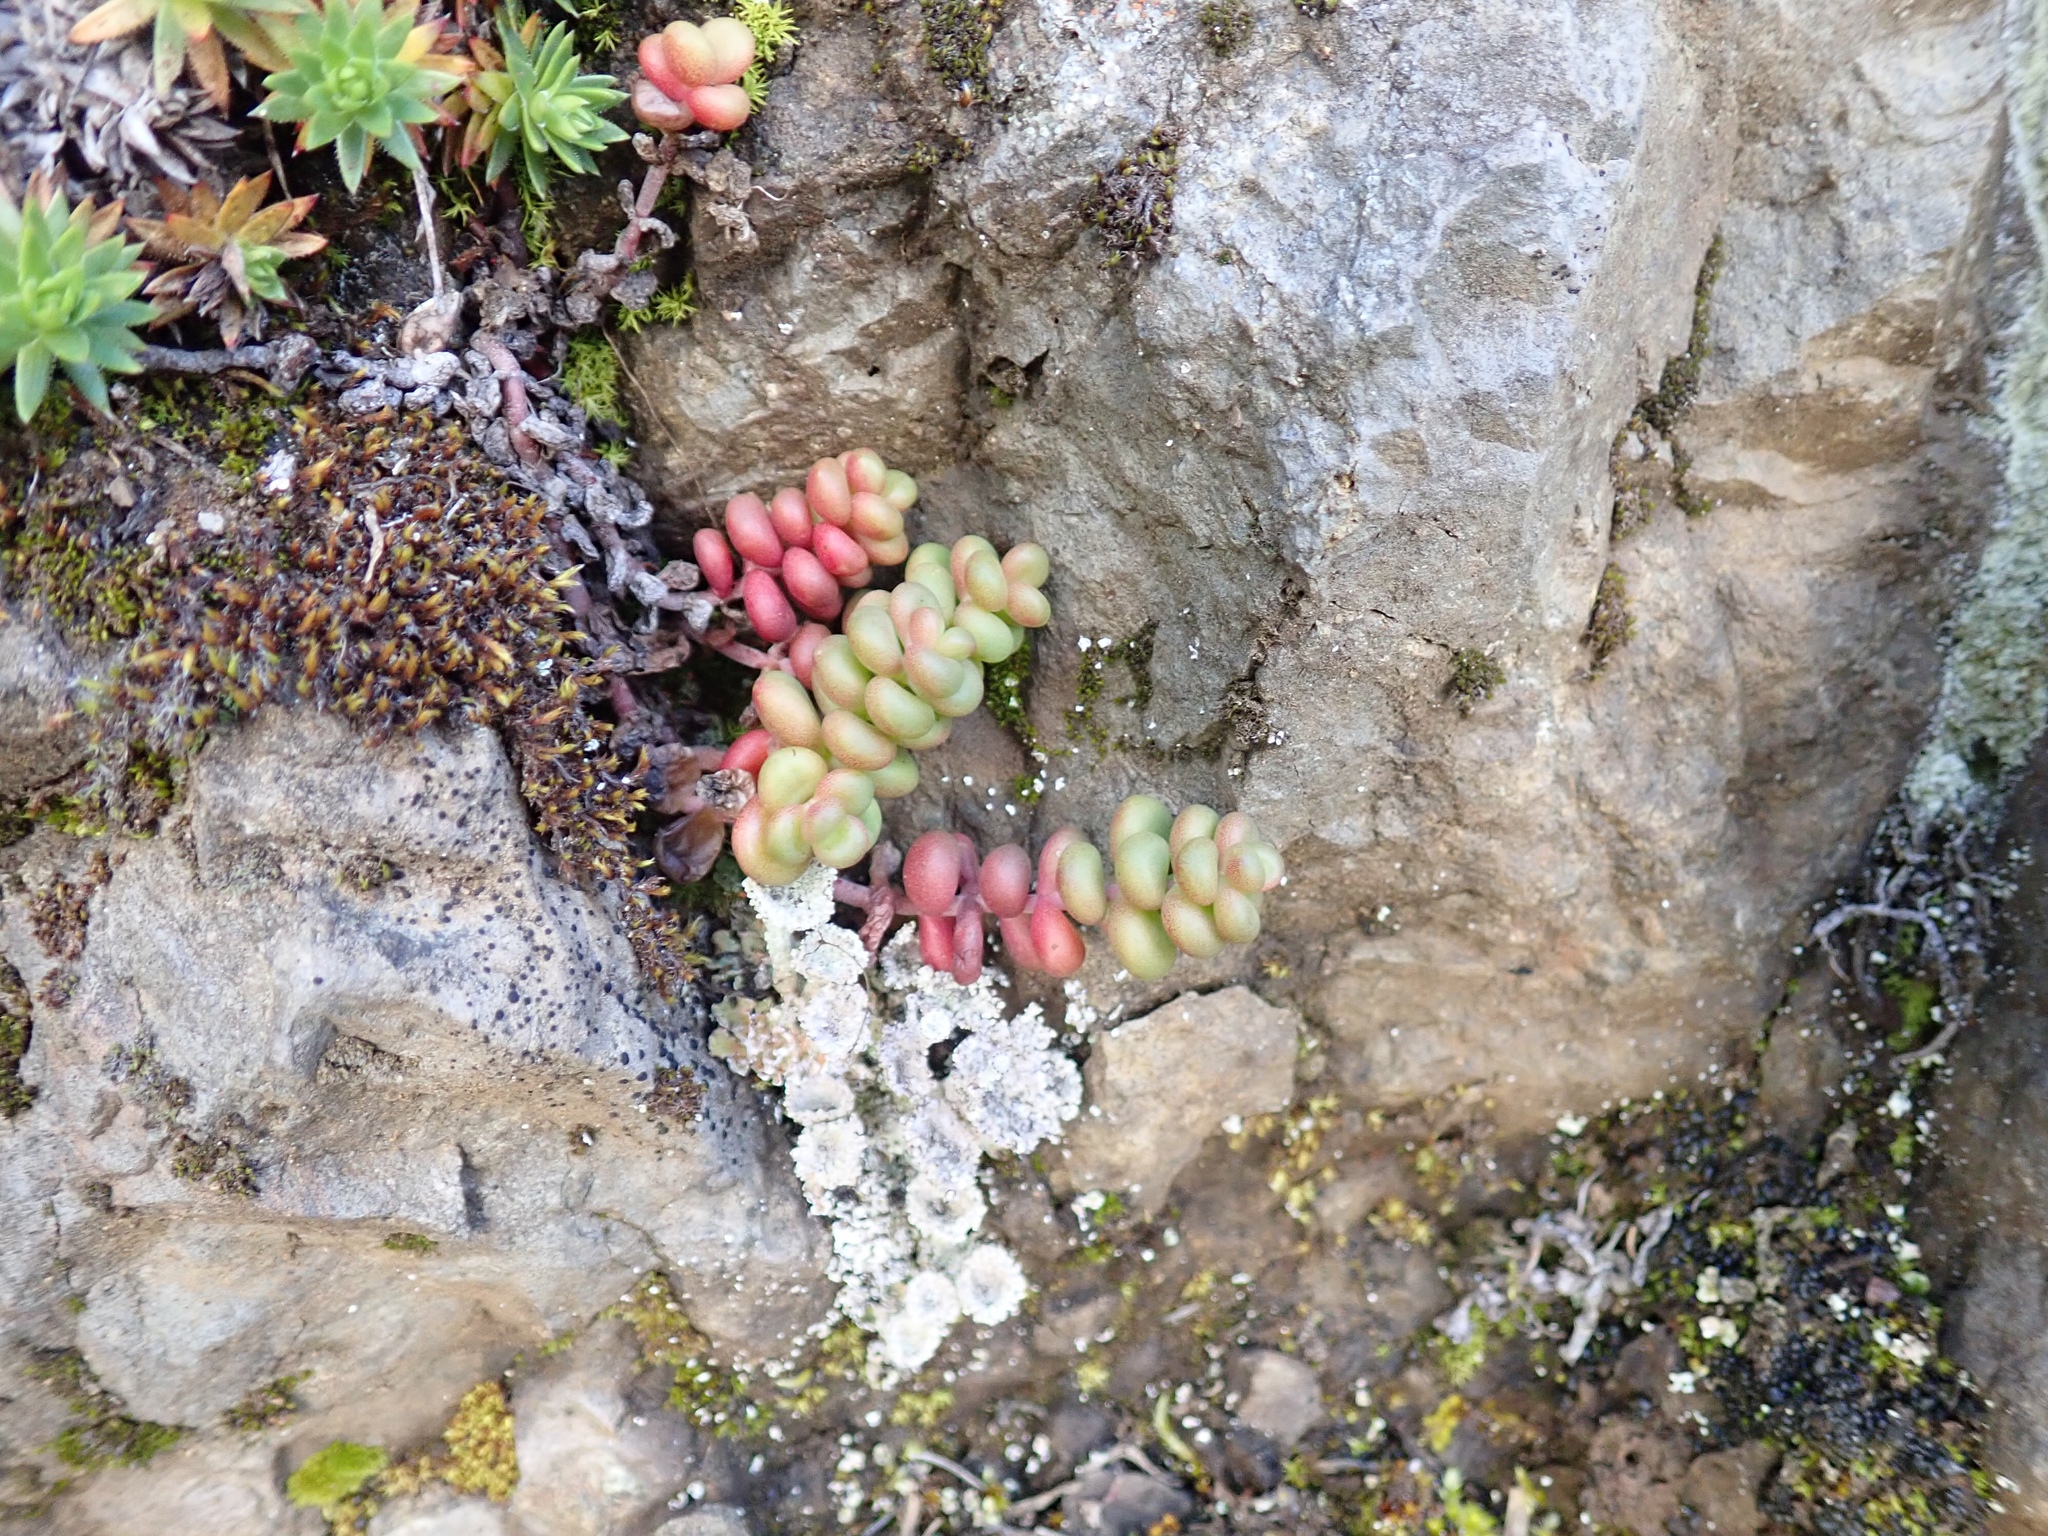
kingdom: Plantae
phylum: Tracheophyta
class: Magnoliopsida
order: Saxifragales
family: Crassulaceae
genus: Sedum
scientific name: Sedum divergens
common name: Cascade stonecrop
